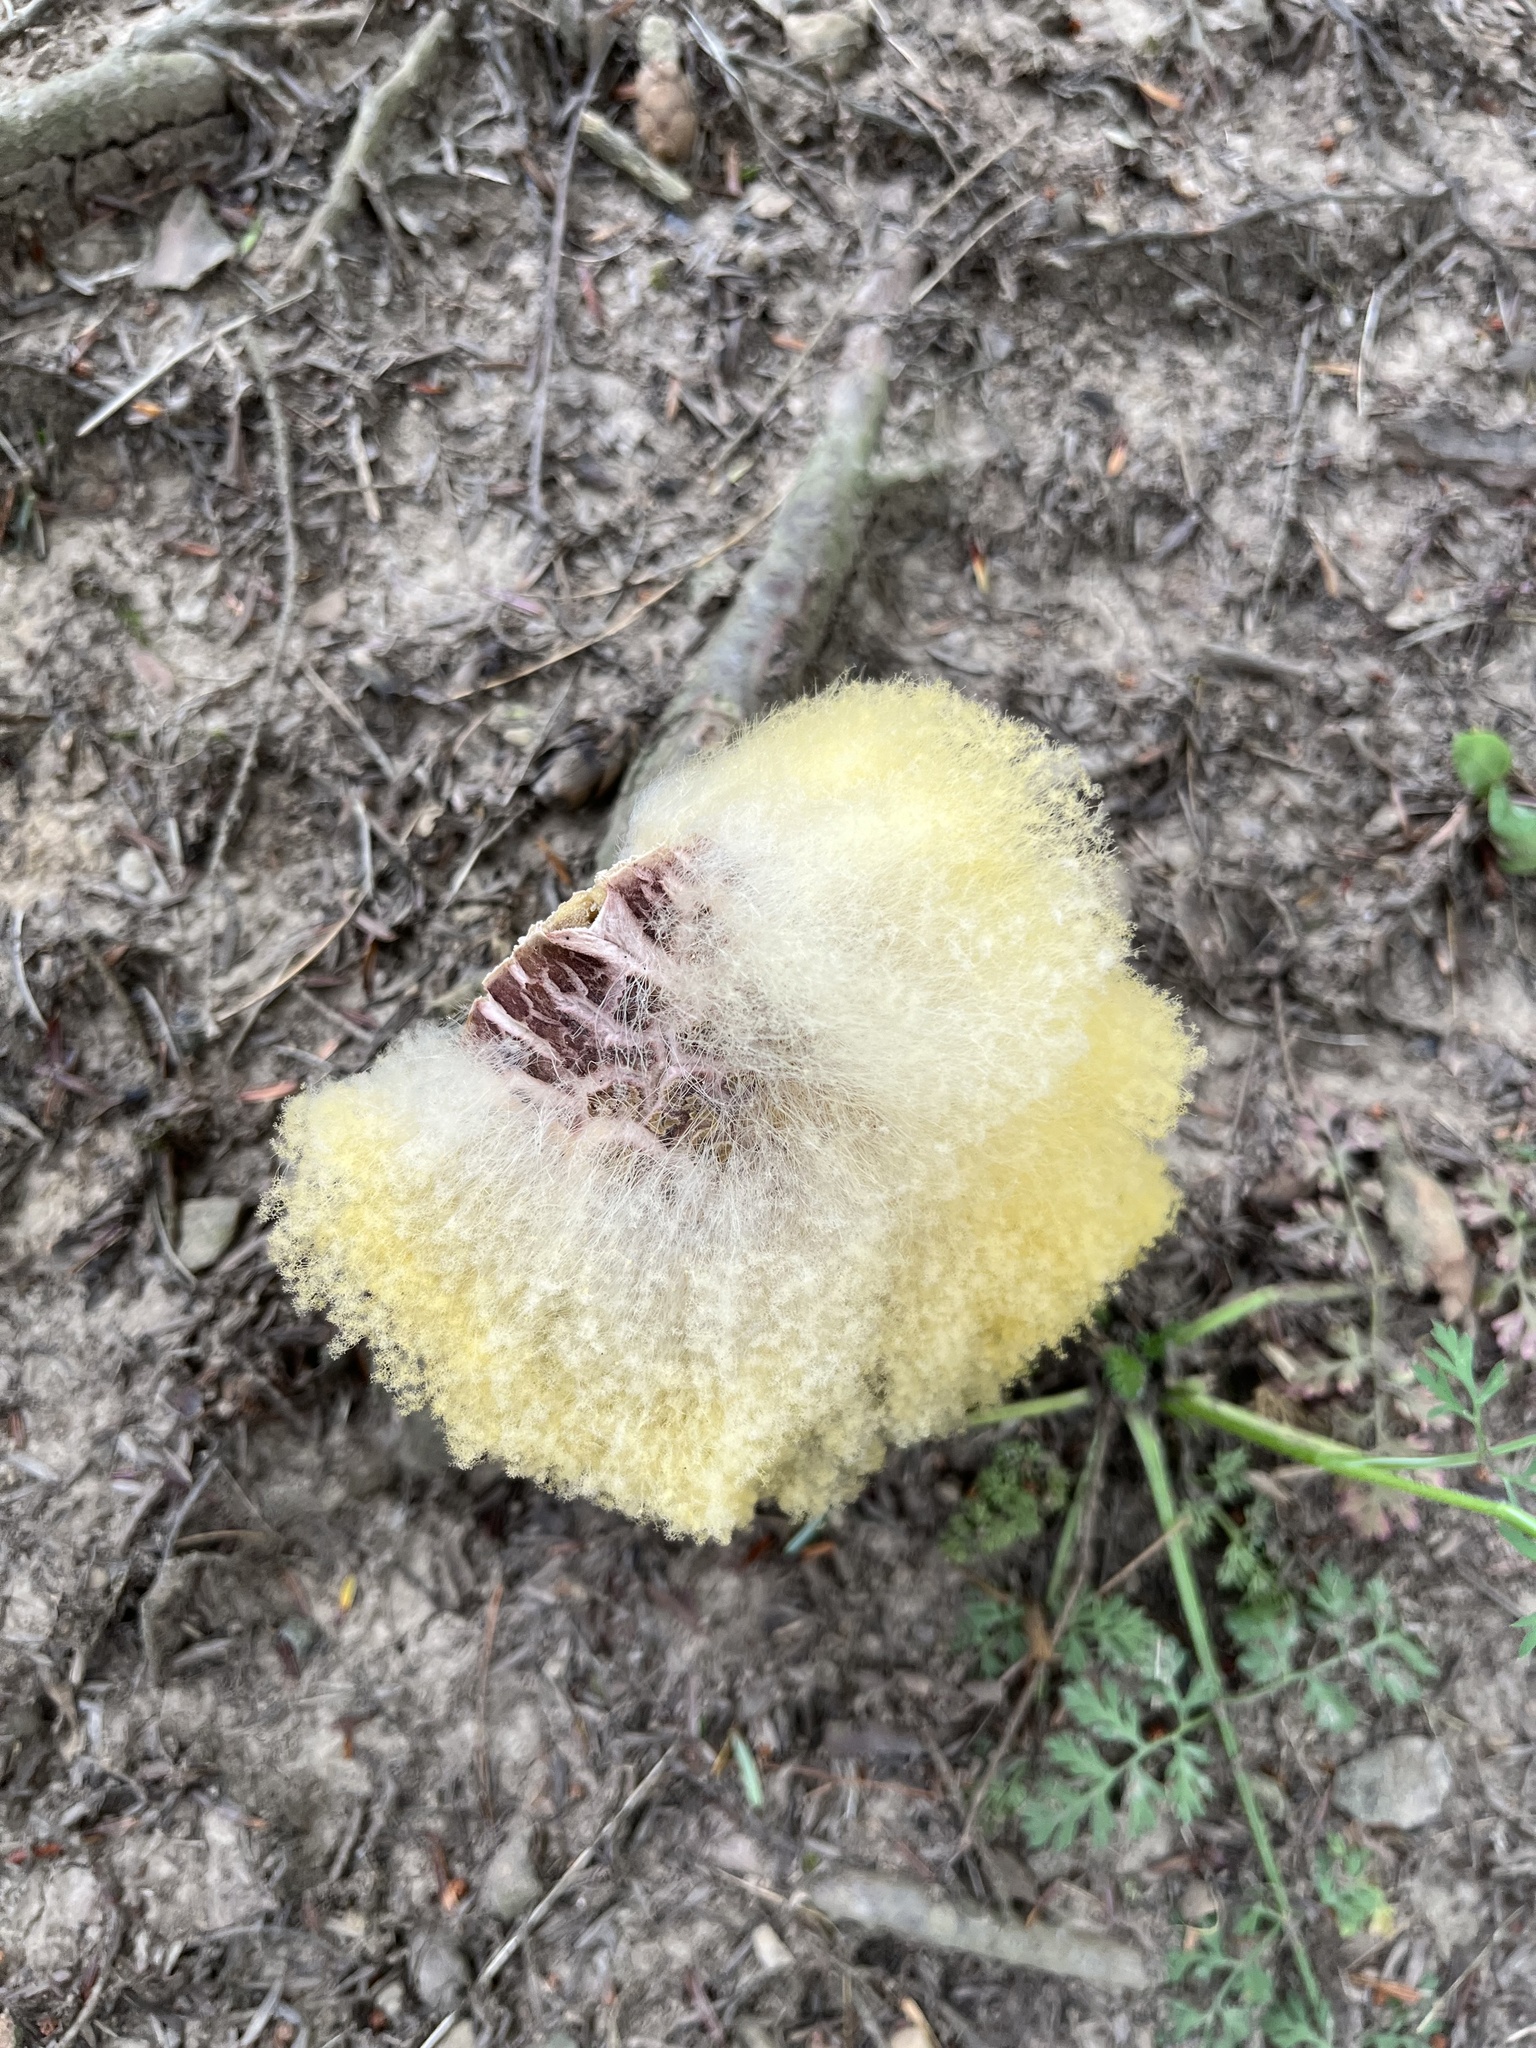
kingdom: Fungi
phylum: Mucoromycota
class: Mucoromycetes
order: Mucorales
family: Rhizopodaceae
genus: Syzygites
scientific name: Syzygites megalocarpus
